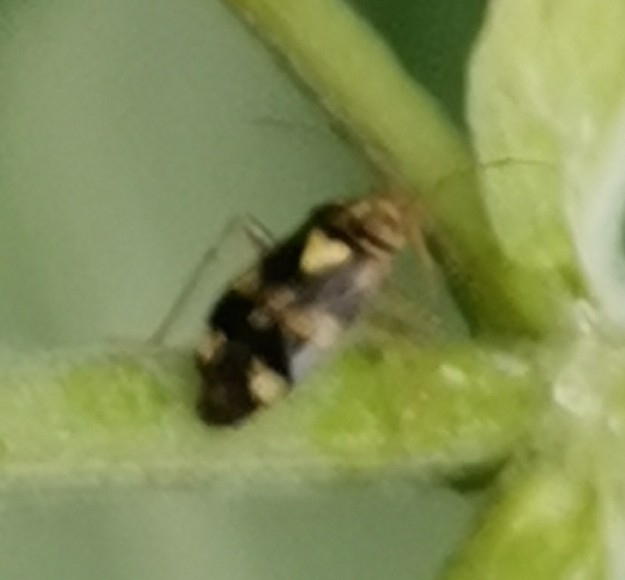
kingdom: Animalia
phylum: Arthropoda
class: Insecta
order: Hemiptera
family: Miridae
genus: Liocoris
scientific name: Liocoris tripustulatus
